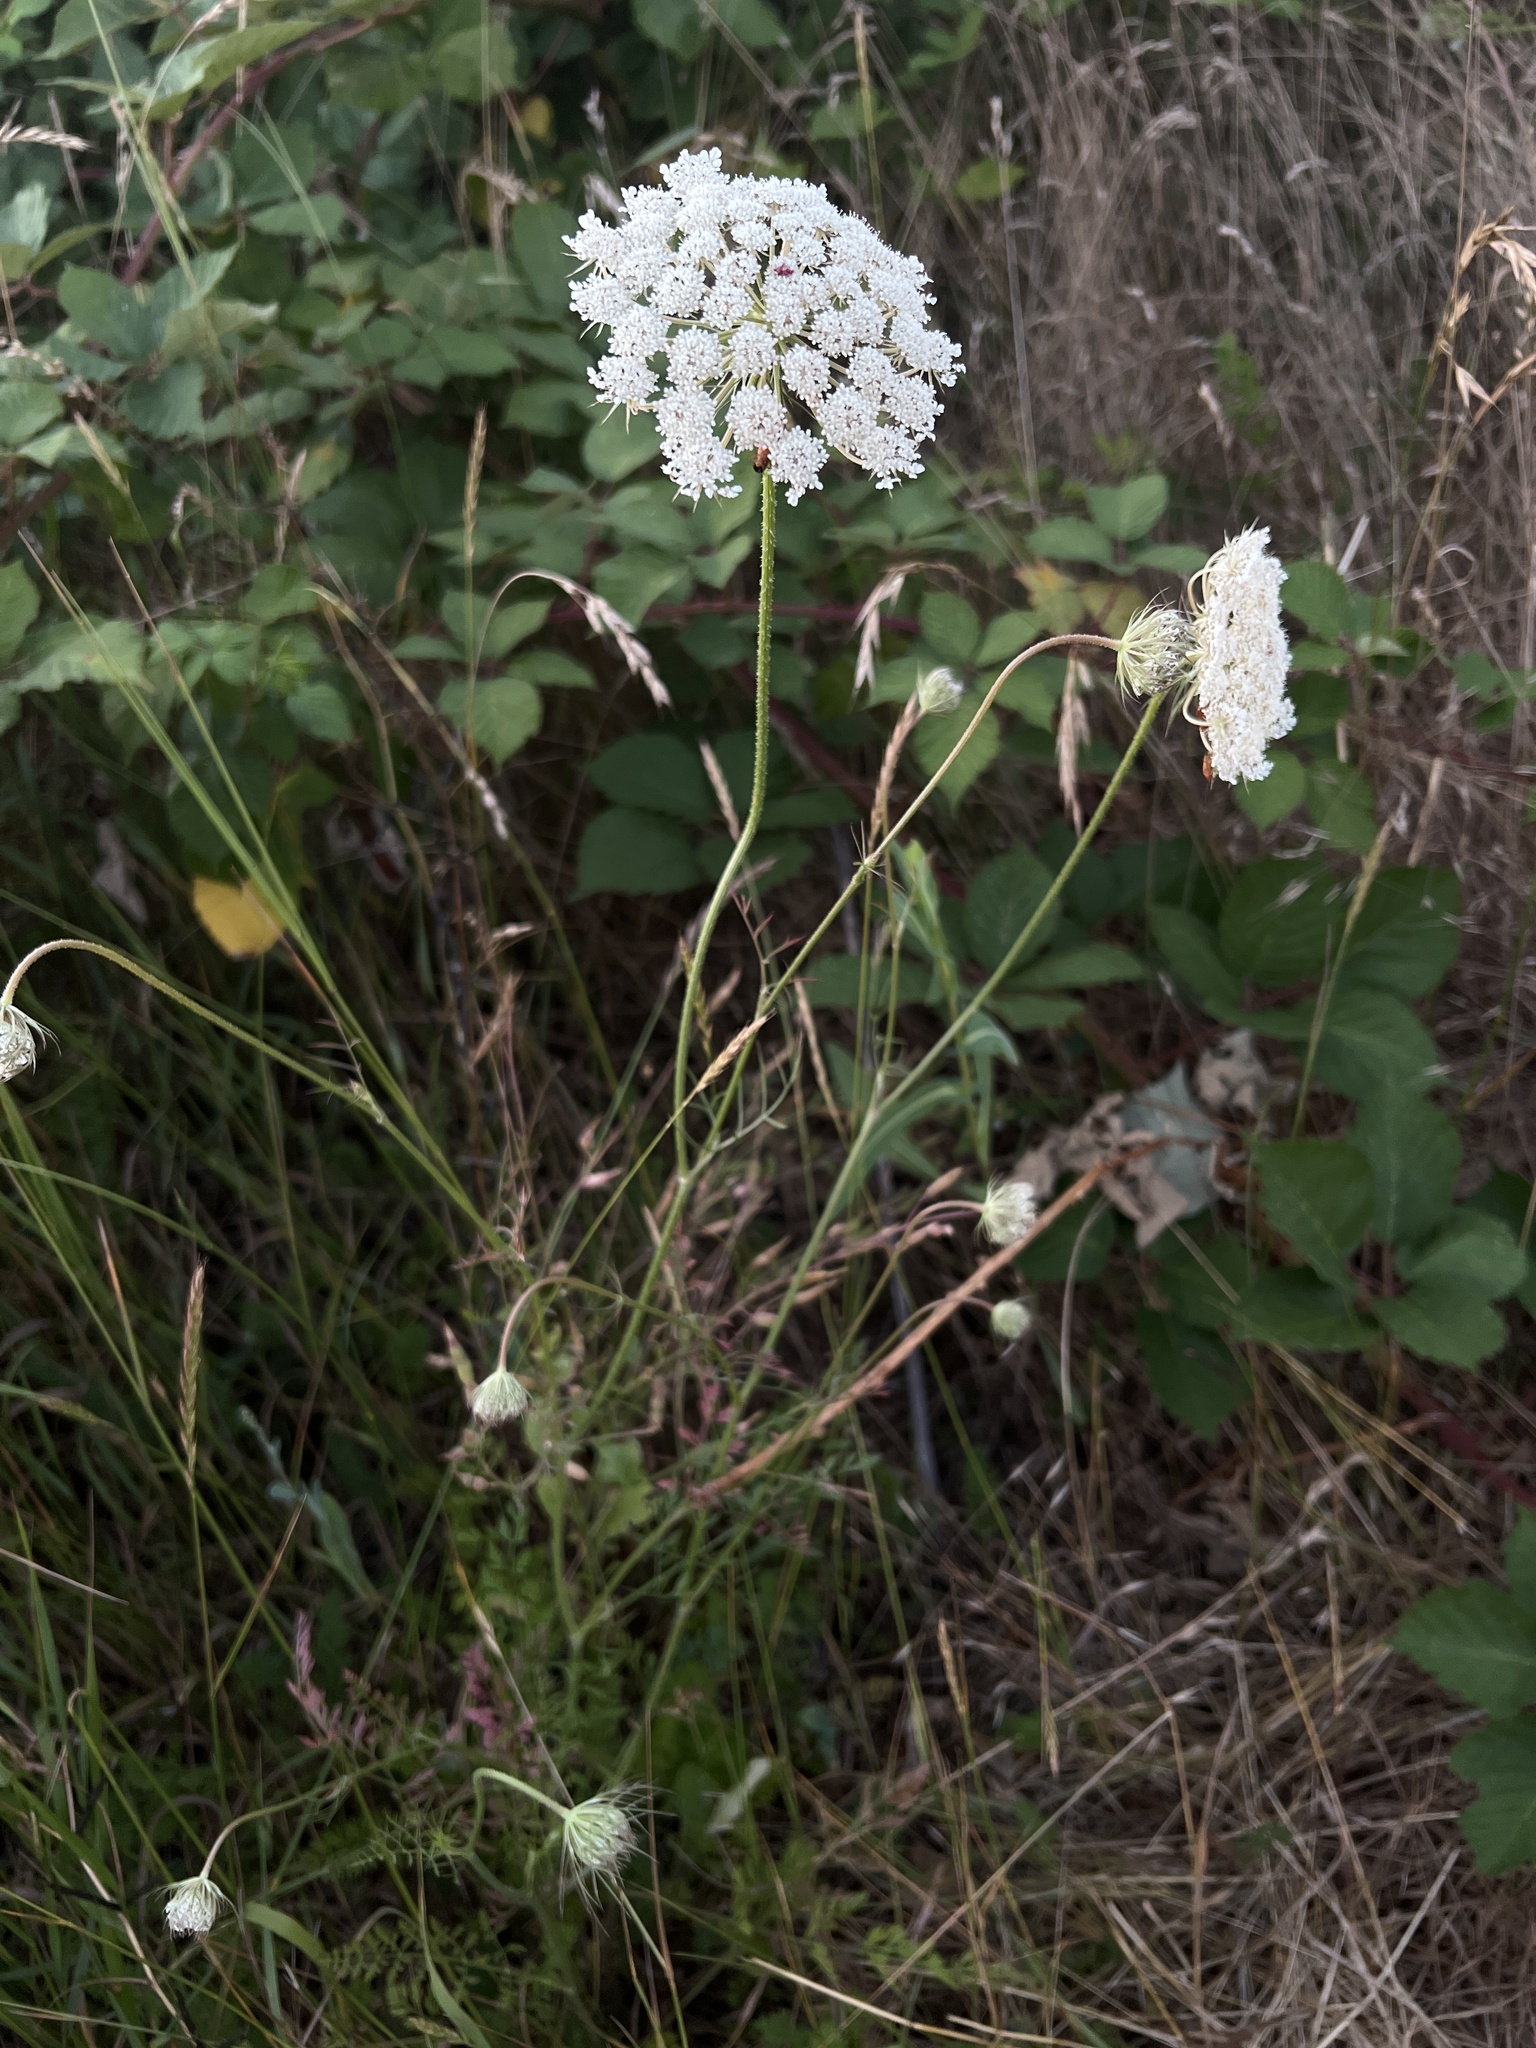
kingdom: Plantae
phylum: Tracheophyta
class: Magnoliopsida
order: Apiales
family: Apiaceae
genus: Daucus
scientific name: Daucus carota
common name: Wild carrot
